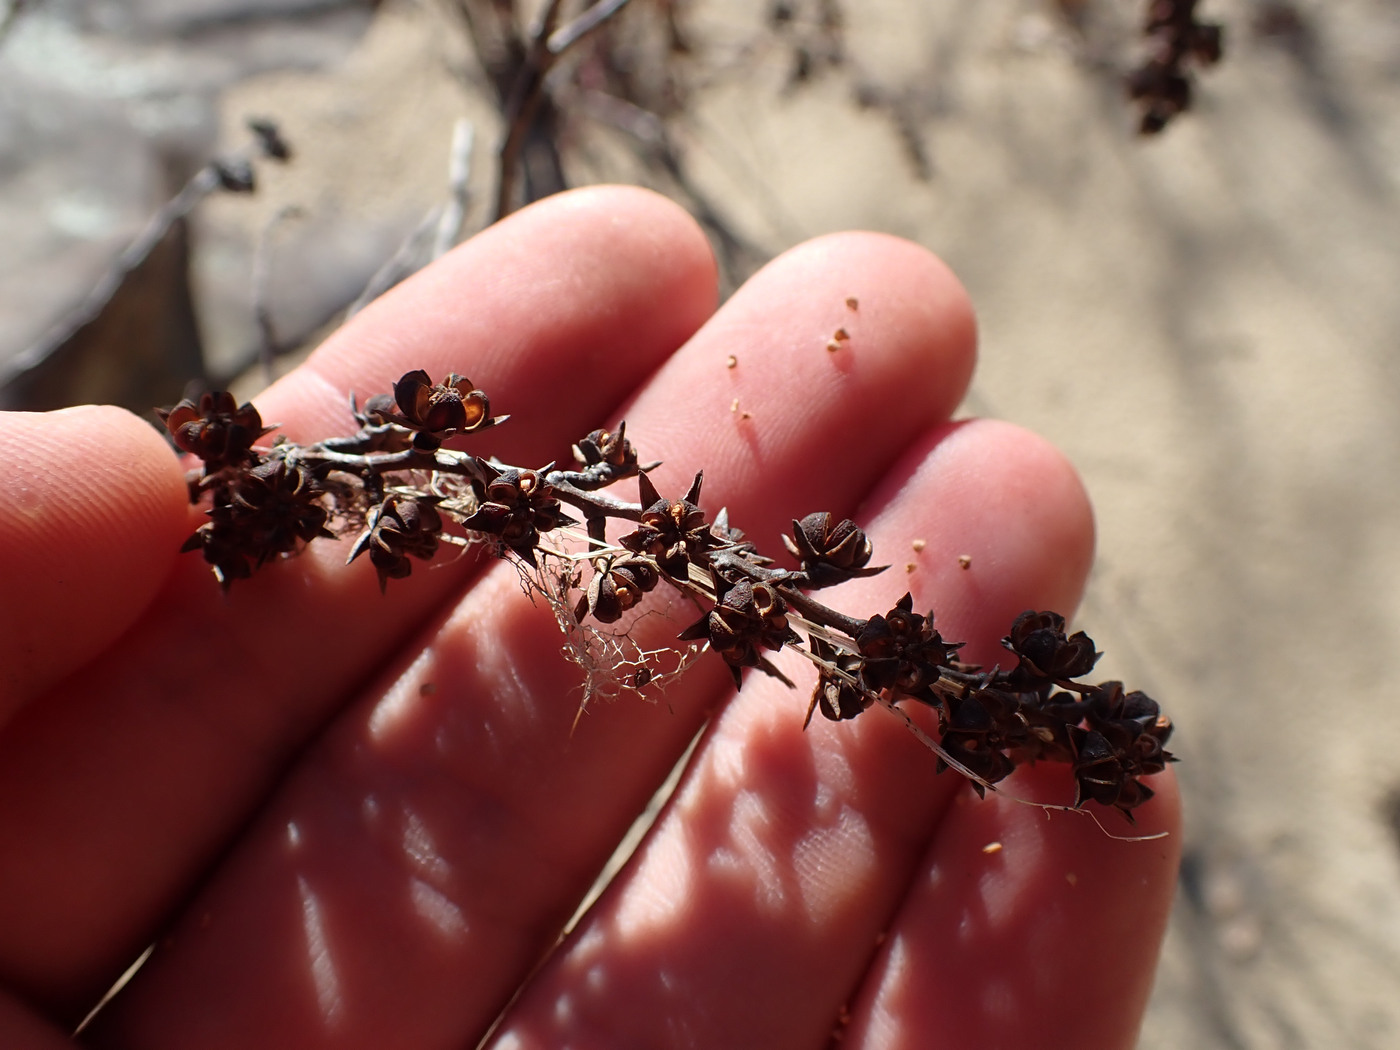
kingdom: Plantae
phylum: Tracheophyta
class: Magnoliopsida
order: Ericales
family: Ericaceae
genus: Eubotrys
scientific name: Eubotrys racemosa
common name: Fetterbush
